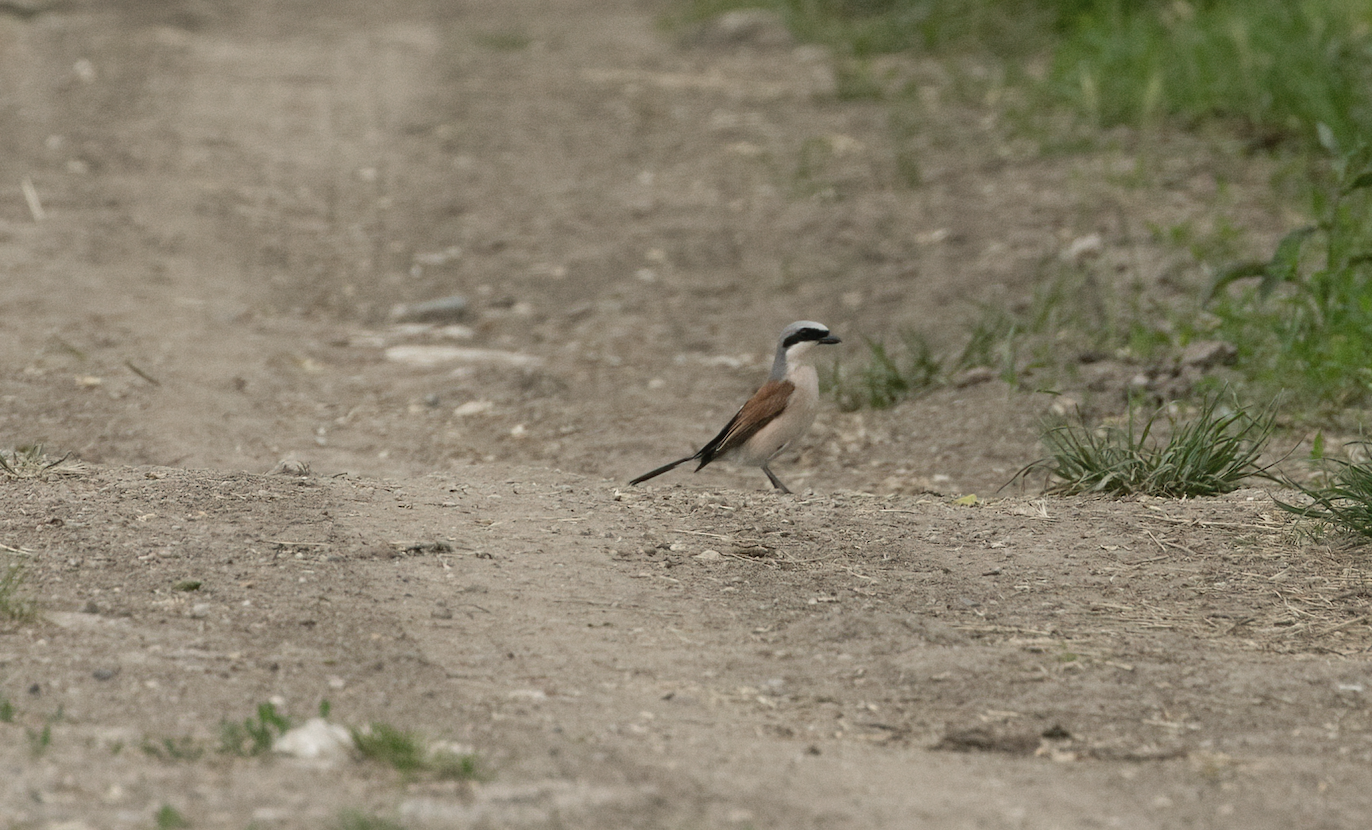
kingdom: Animalia
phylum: Chordata
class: Aves
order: Passeriformes
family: Laniidae
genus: Lanius
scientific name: Lanius collurio
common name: Red-backed shrike
